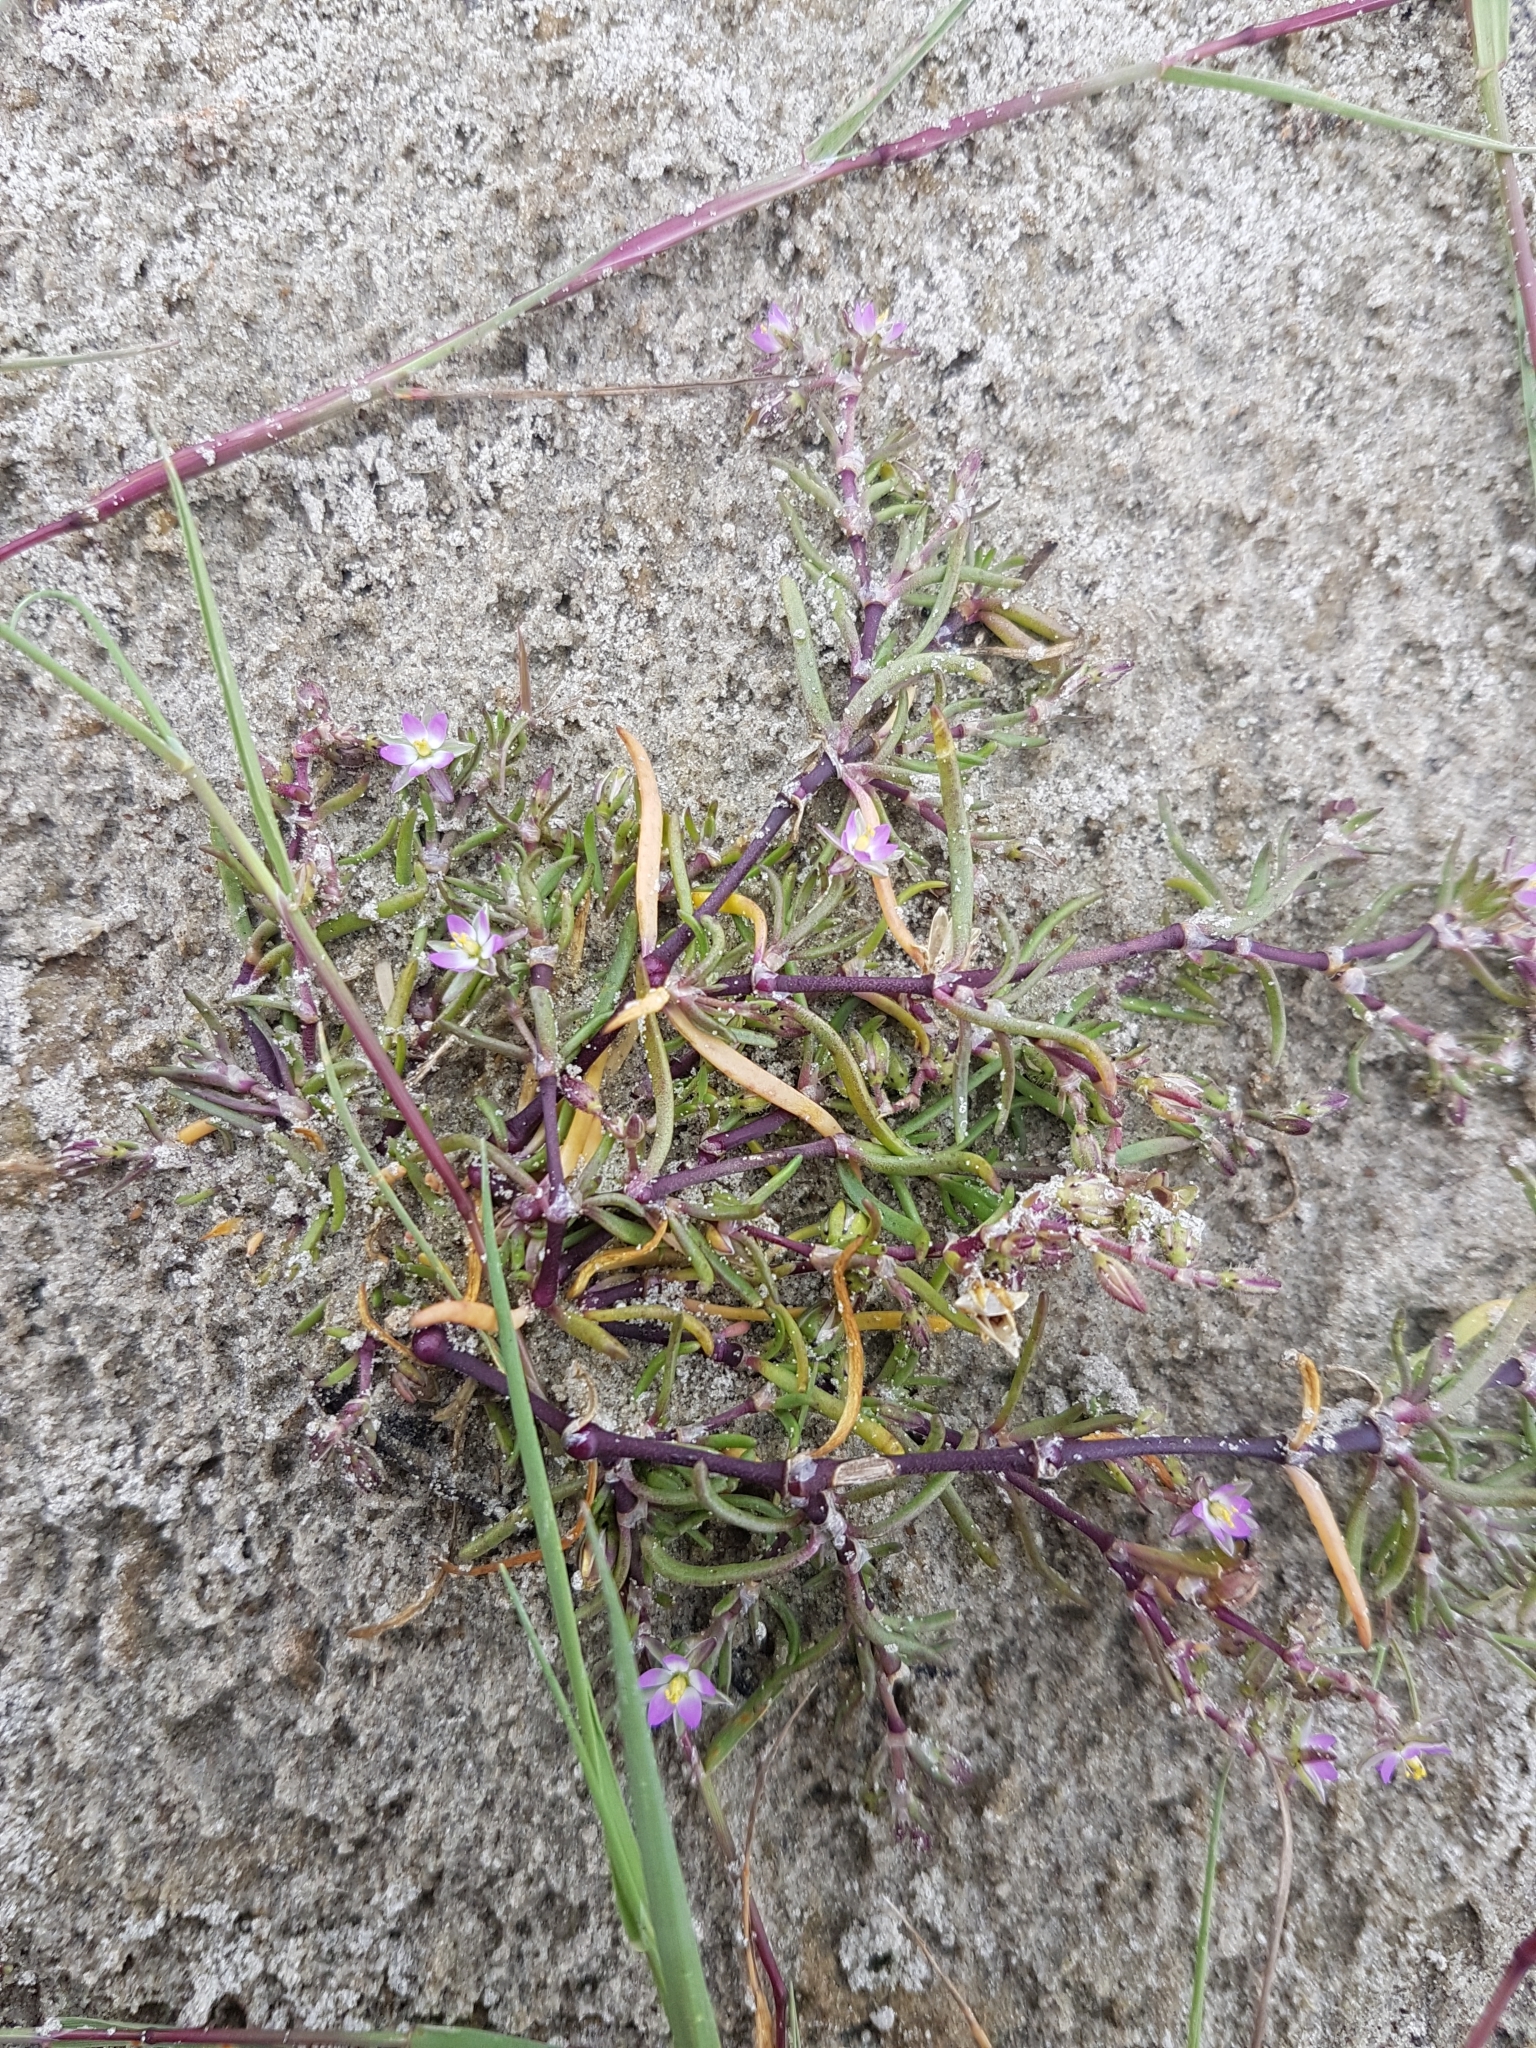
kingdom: Plantae
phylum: Tracheophyta
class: Magnoliopsida
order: Caryophyllales
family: Caryophyllaceae
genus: Spergularia
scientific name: Spergularia marina
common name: Lesser sea-spurrey
